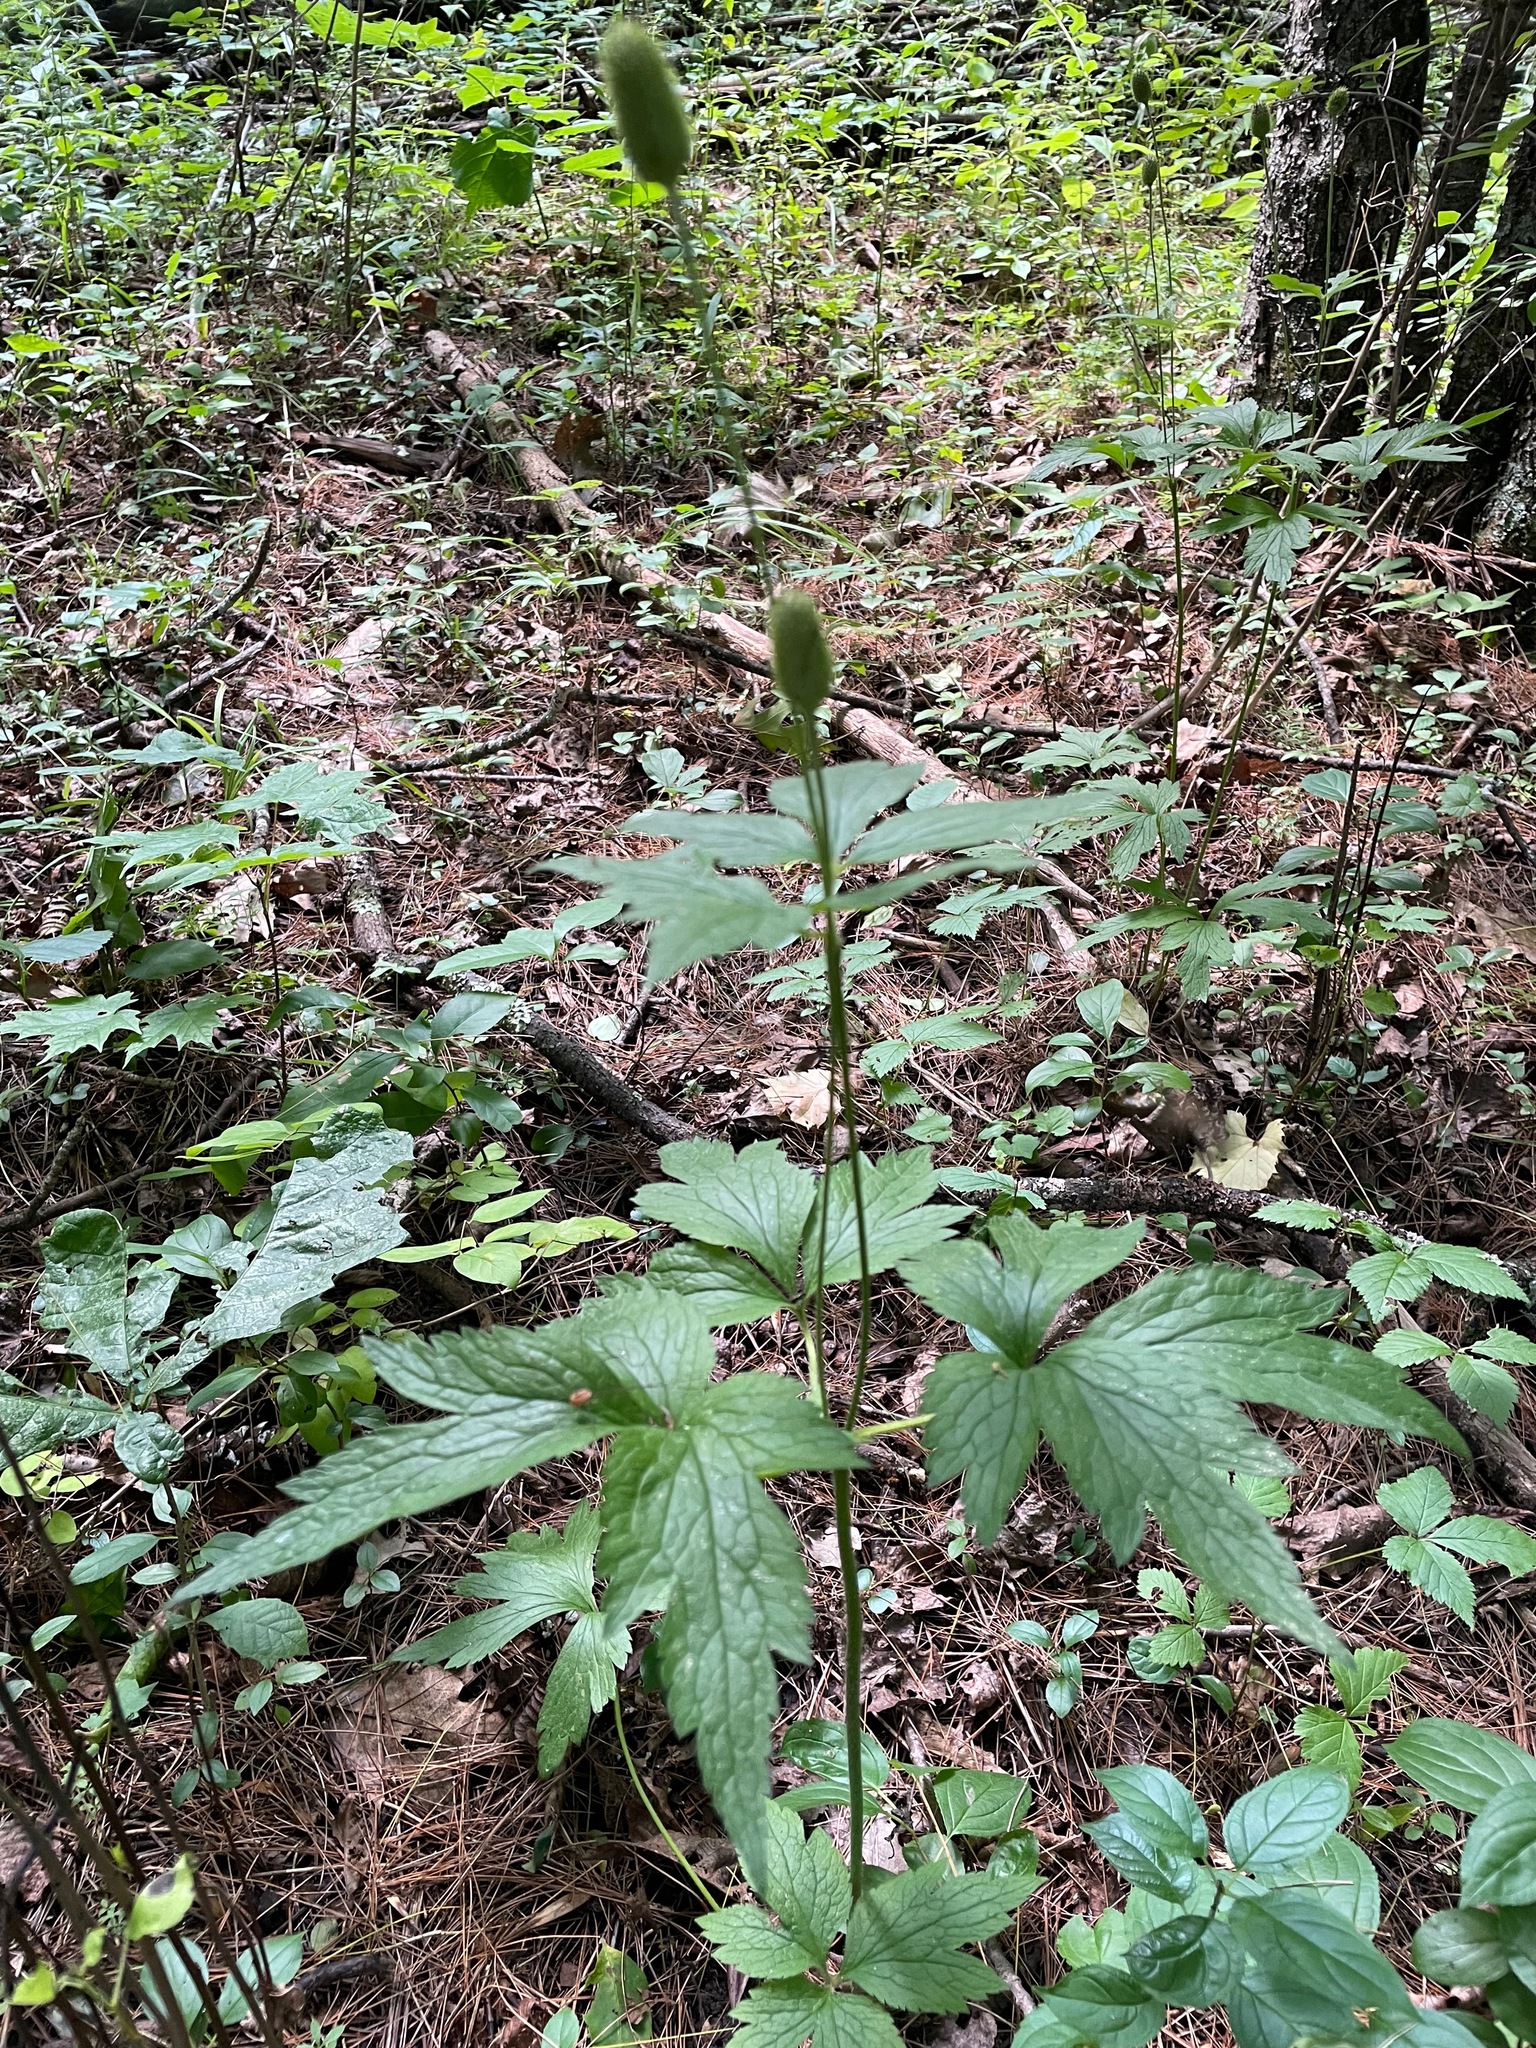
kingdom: Plantae
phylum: Tracheophyta
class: Magnoliopsida
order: Ranunculales
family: Ranunculaceae
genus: Anemone
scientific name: Anemone virginiana
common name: Tall anemone
